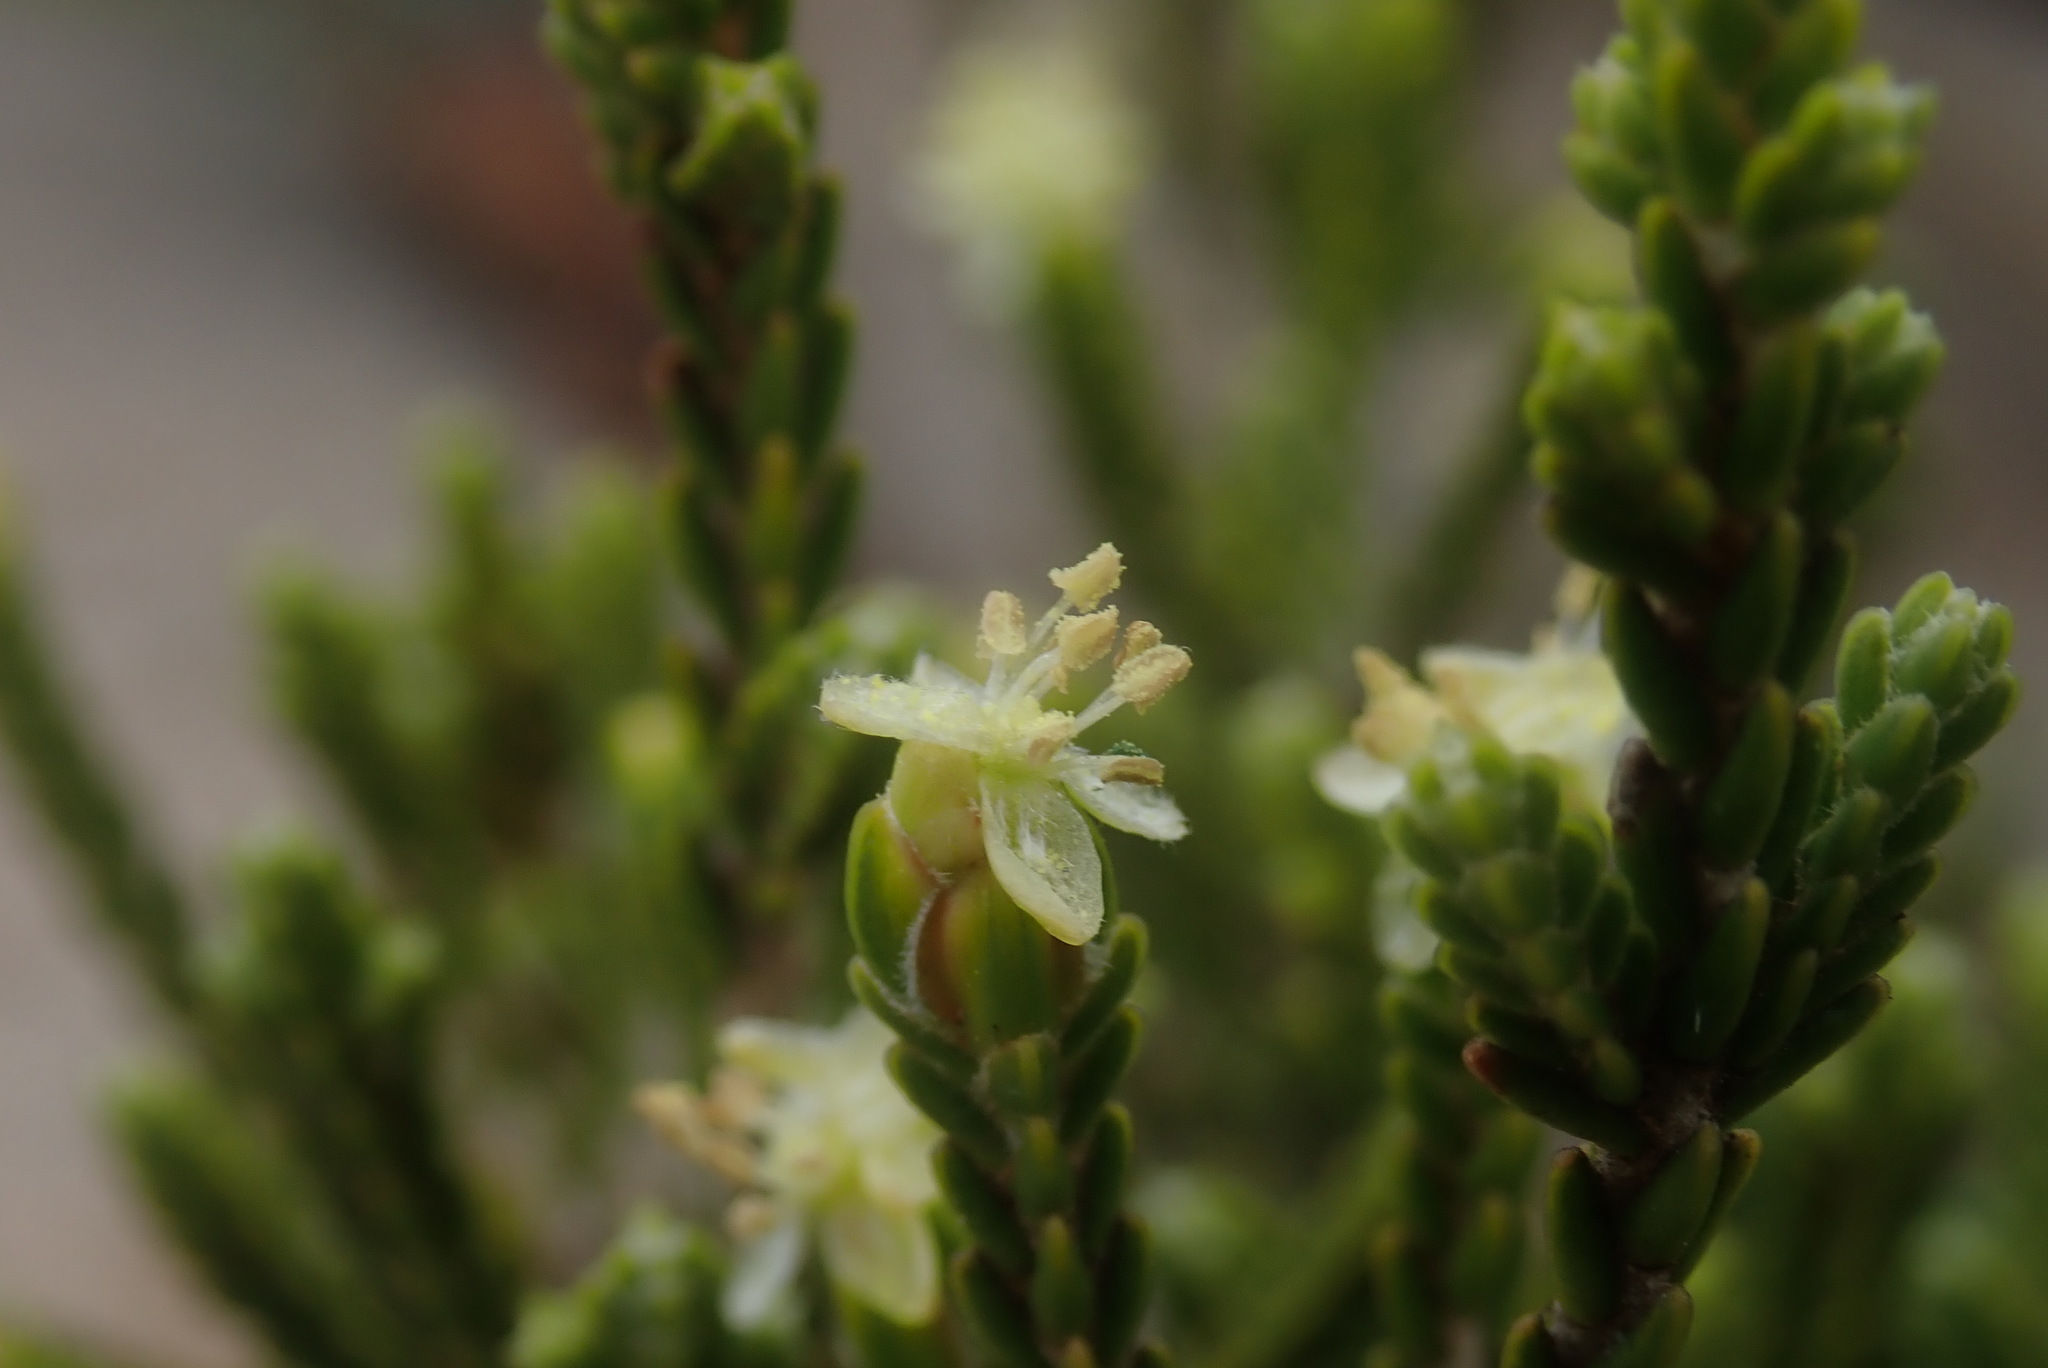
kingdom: Plantae
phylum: Tracheophyta
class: Magnoliopsida
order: Malvales
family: Thymelaeaceae
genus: Passerina
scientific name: Passerina montana
